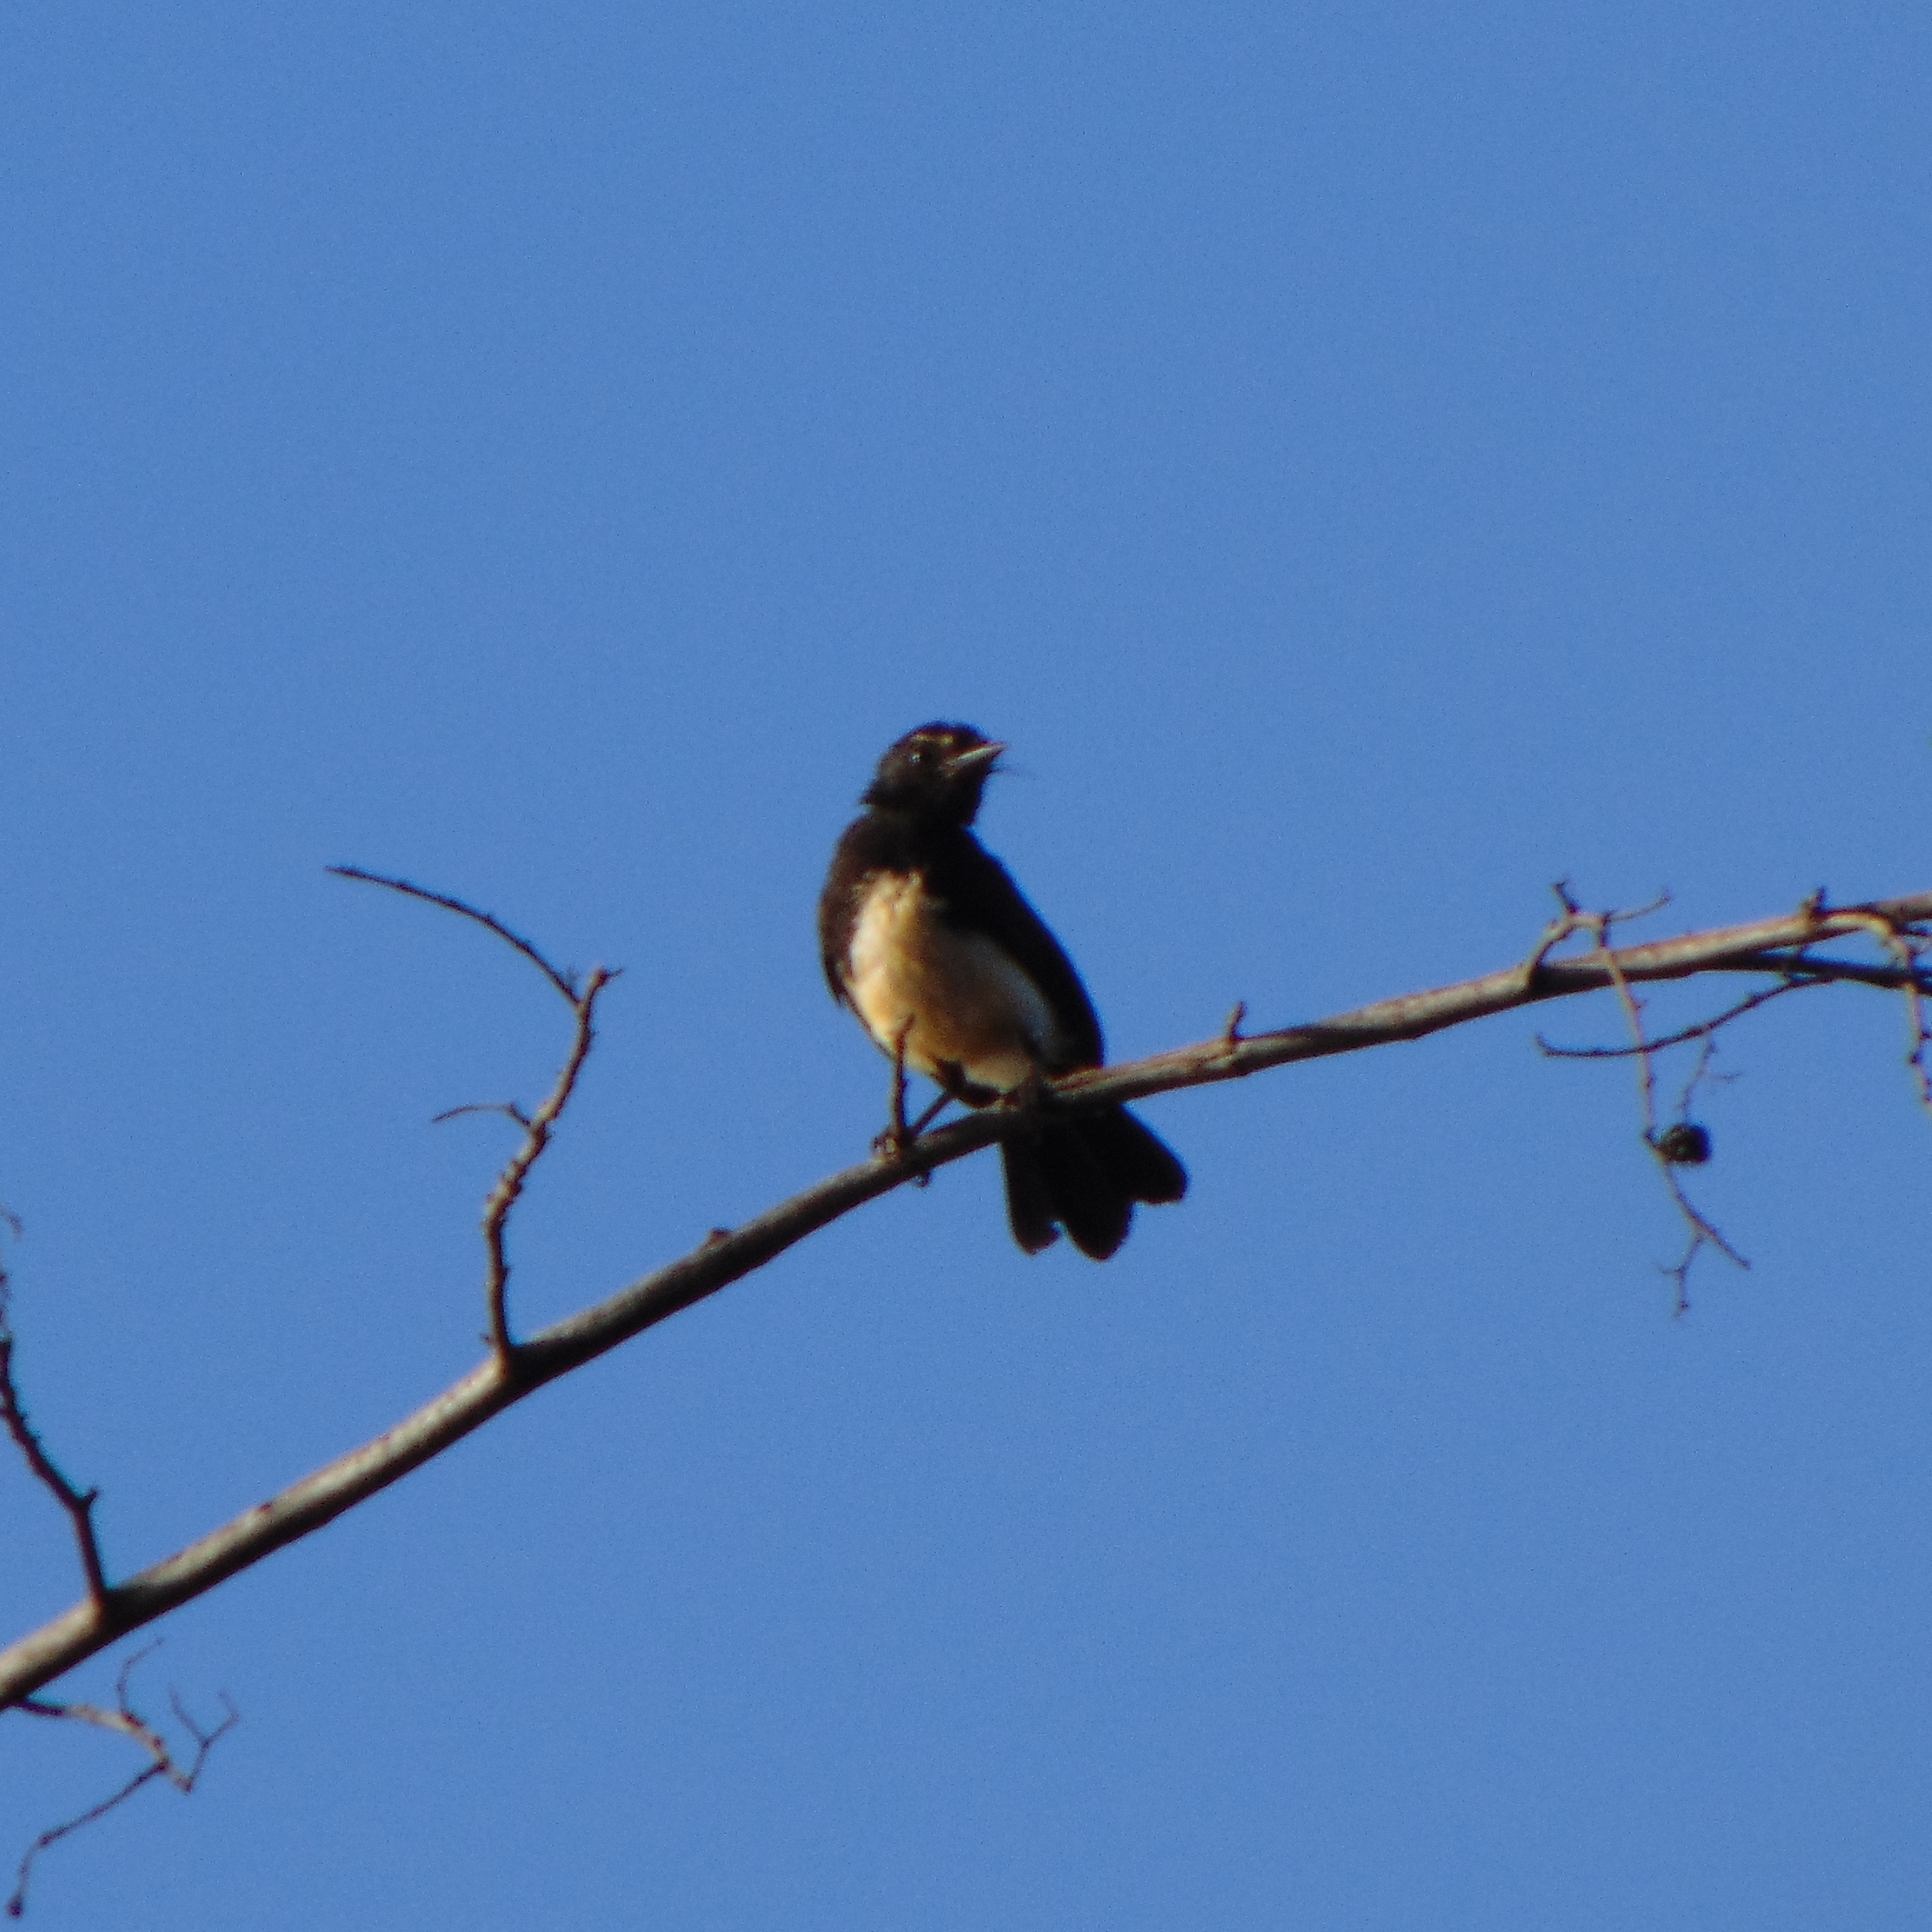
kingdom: Animalia
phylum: Chordata
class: Aves
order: Passeriformes
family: Rhipiduridae
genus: Rhipidura
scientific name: Rhipidura leucophrys
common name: Willie wagtail
